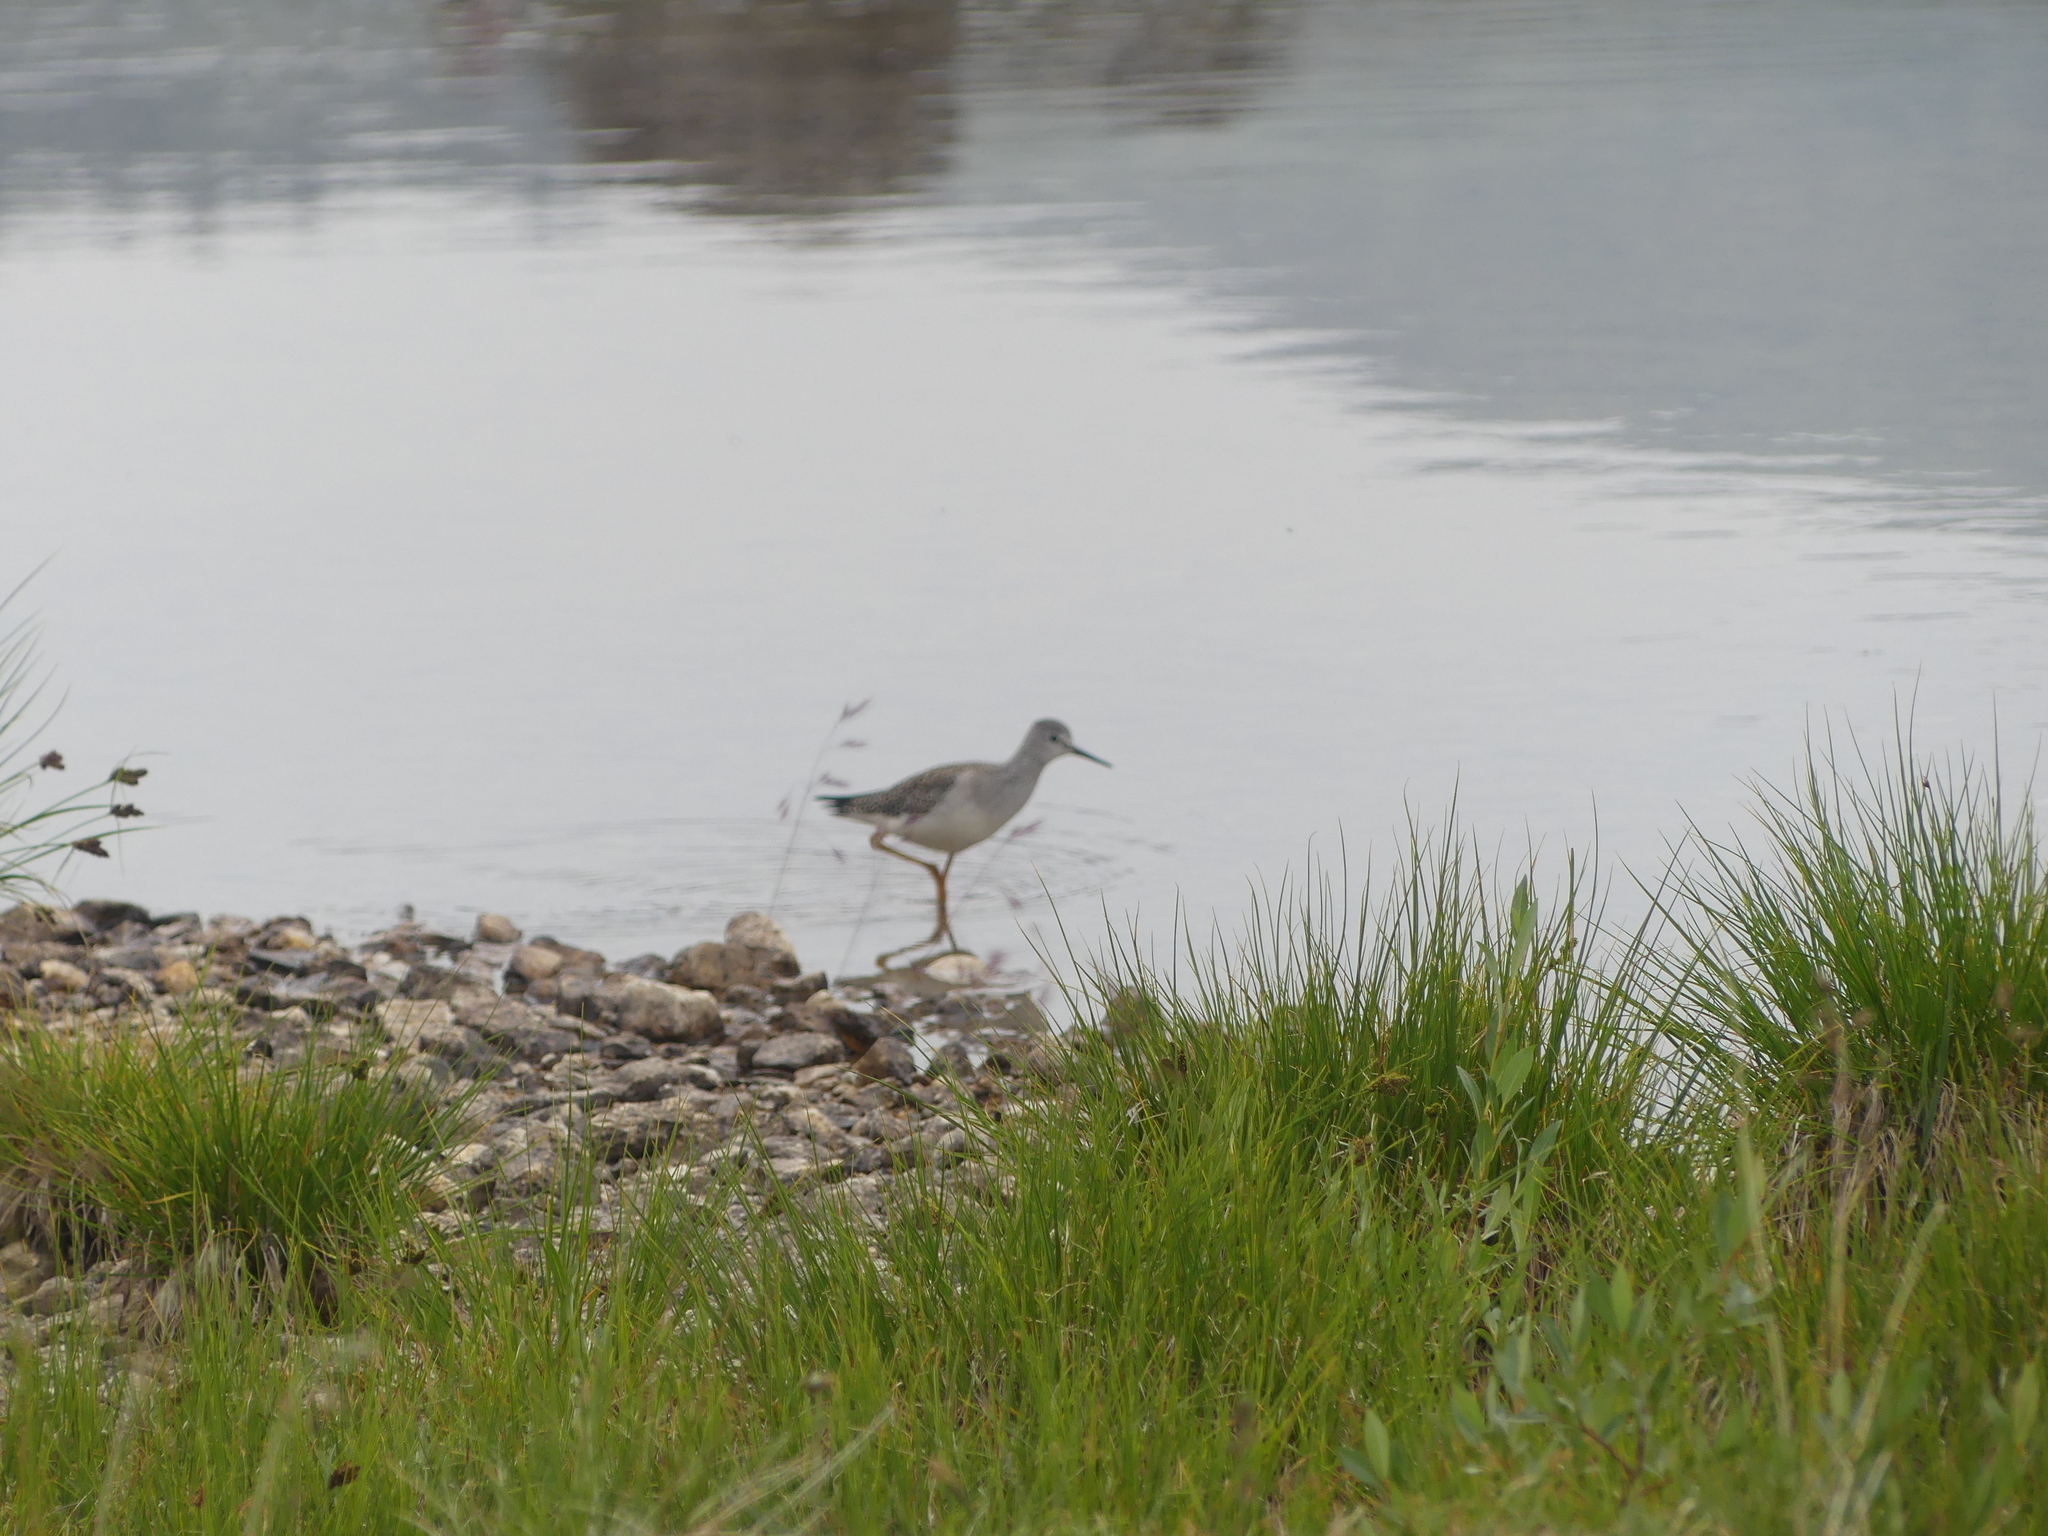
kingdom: Animalia
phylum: Chordata
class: Aves
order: Charadriiformes
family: Scolopacidae
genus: Tringa
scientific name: Tringa melanoleuca
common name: Greater yellowlegs
